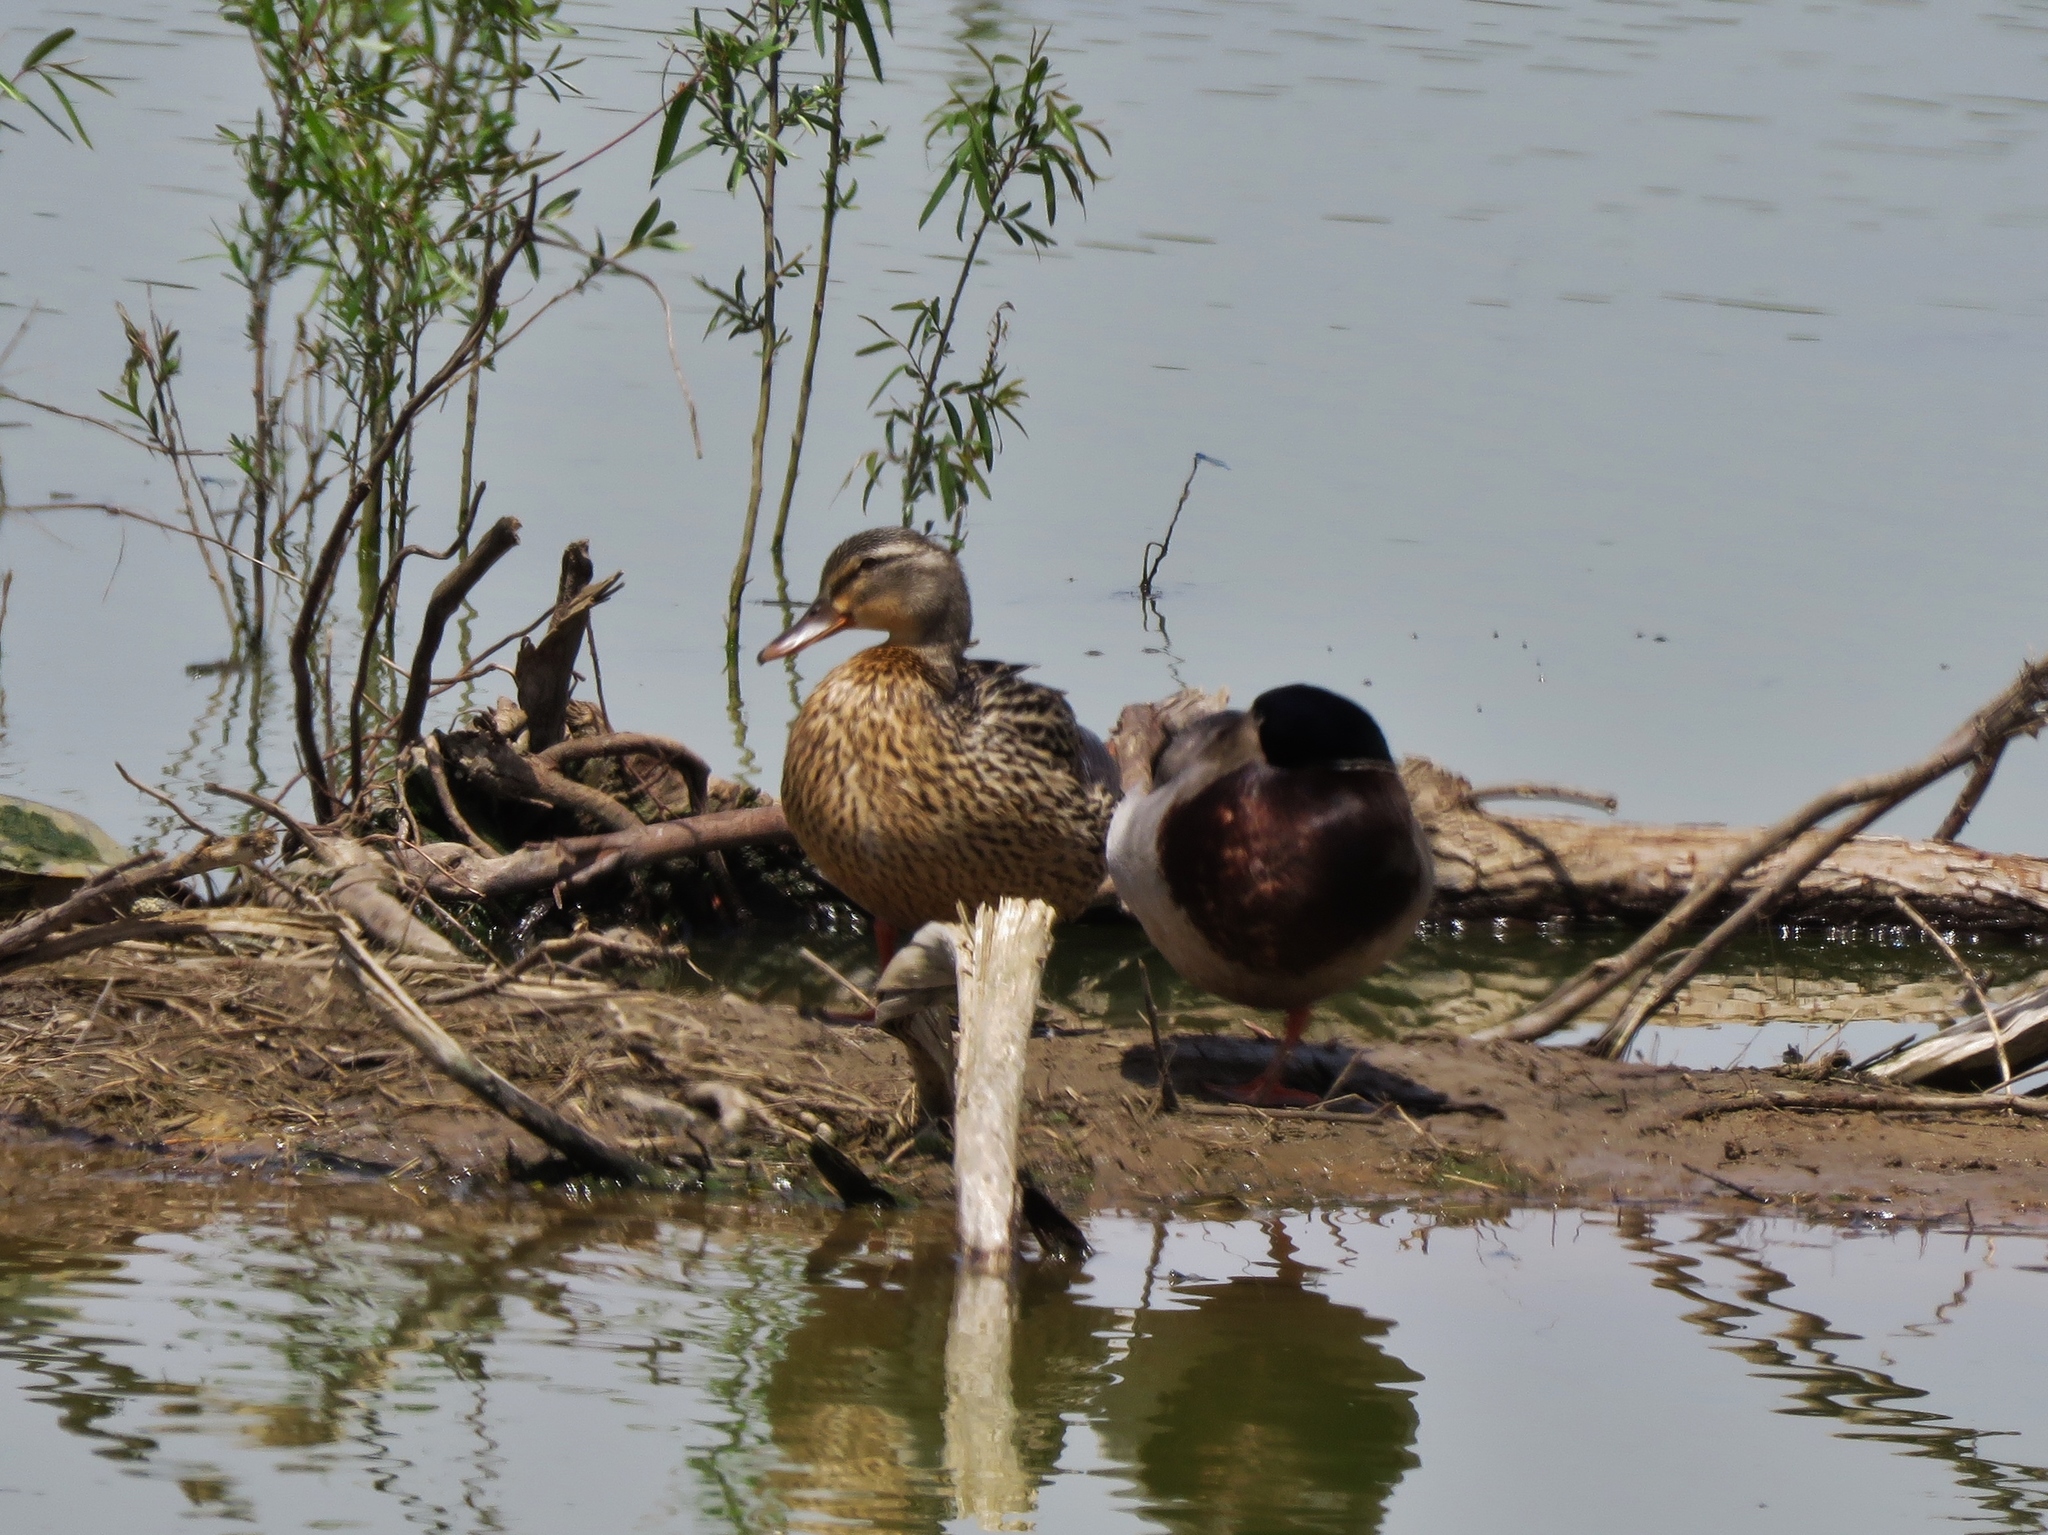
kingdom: Animalia
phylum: Chordata
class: Aves
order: Anseriformes
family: Anatidae
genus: Anas
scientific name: Anas platyrhynchos
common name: Mallard
